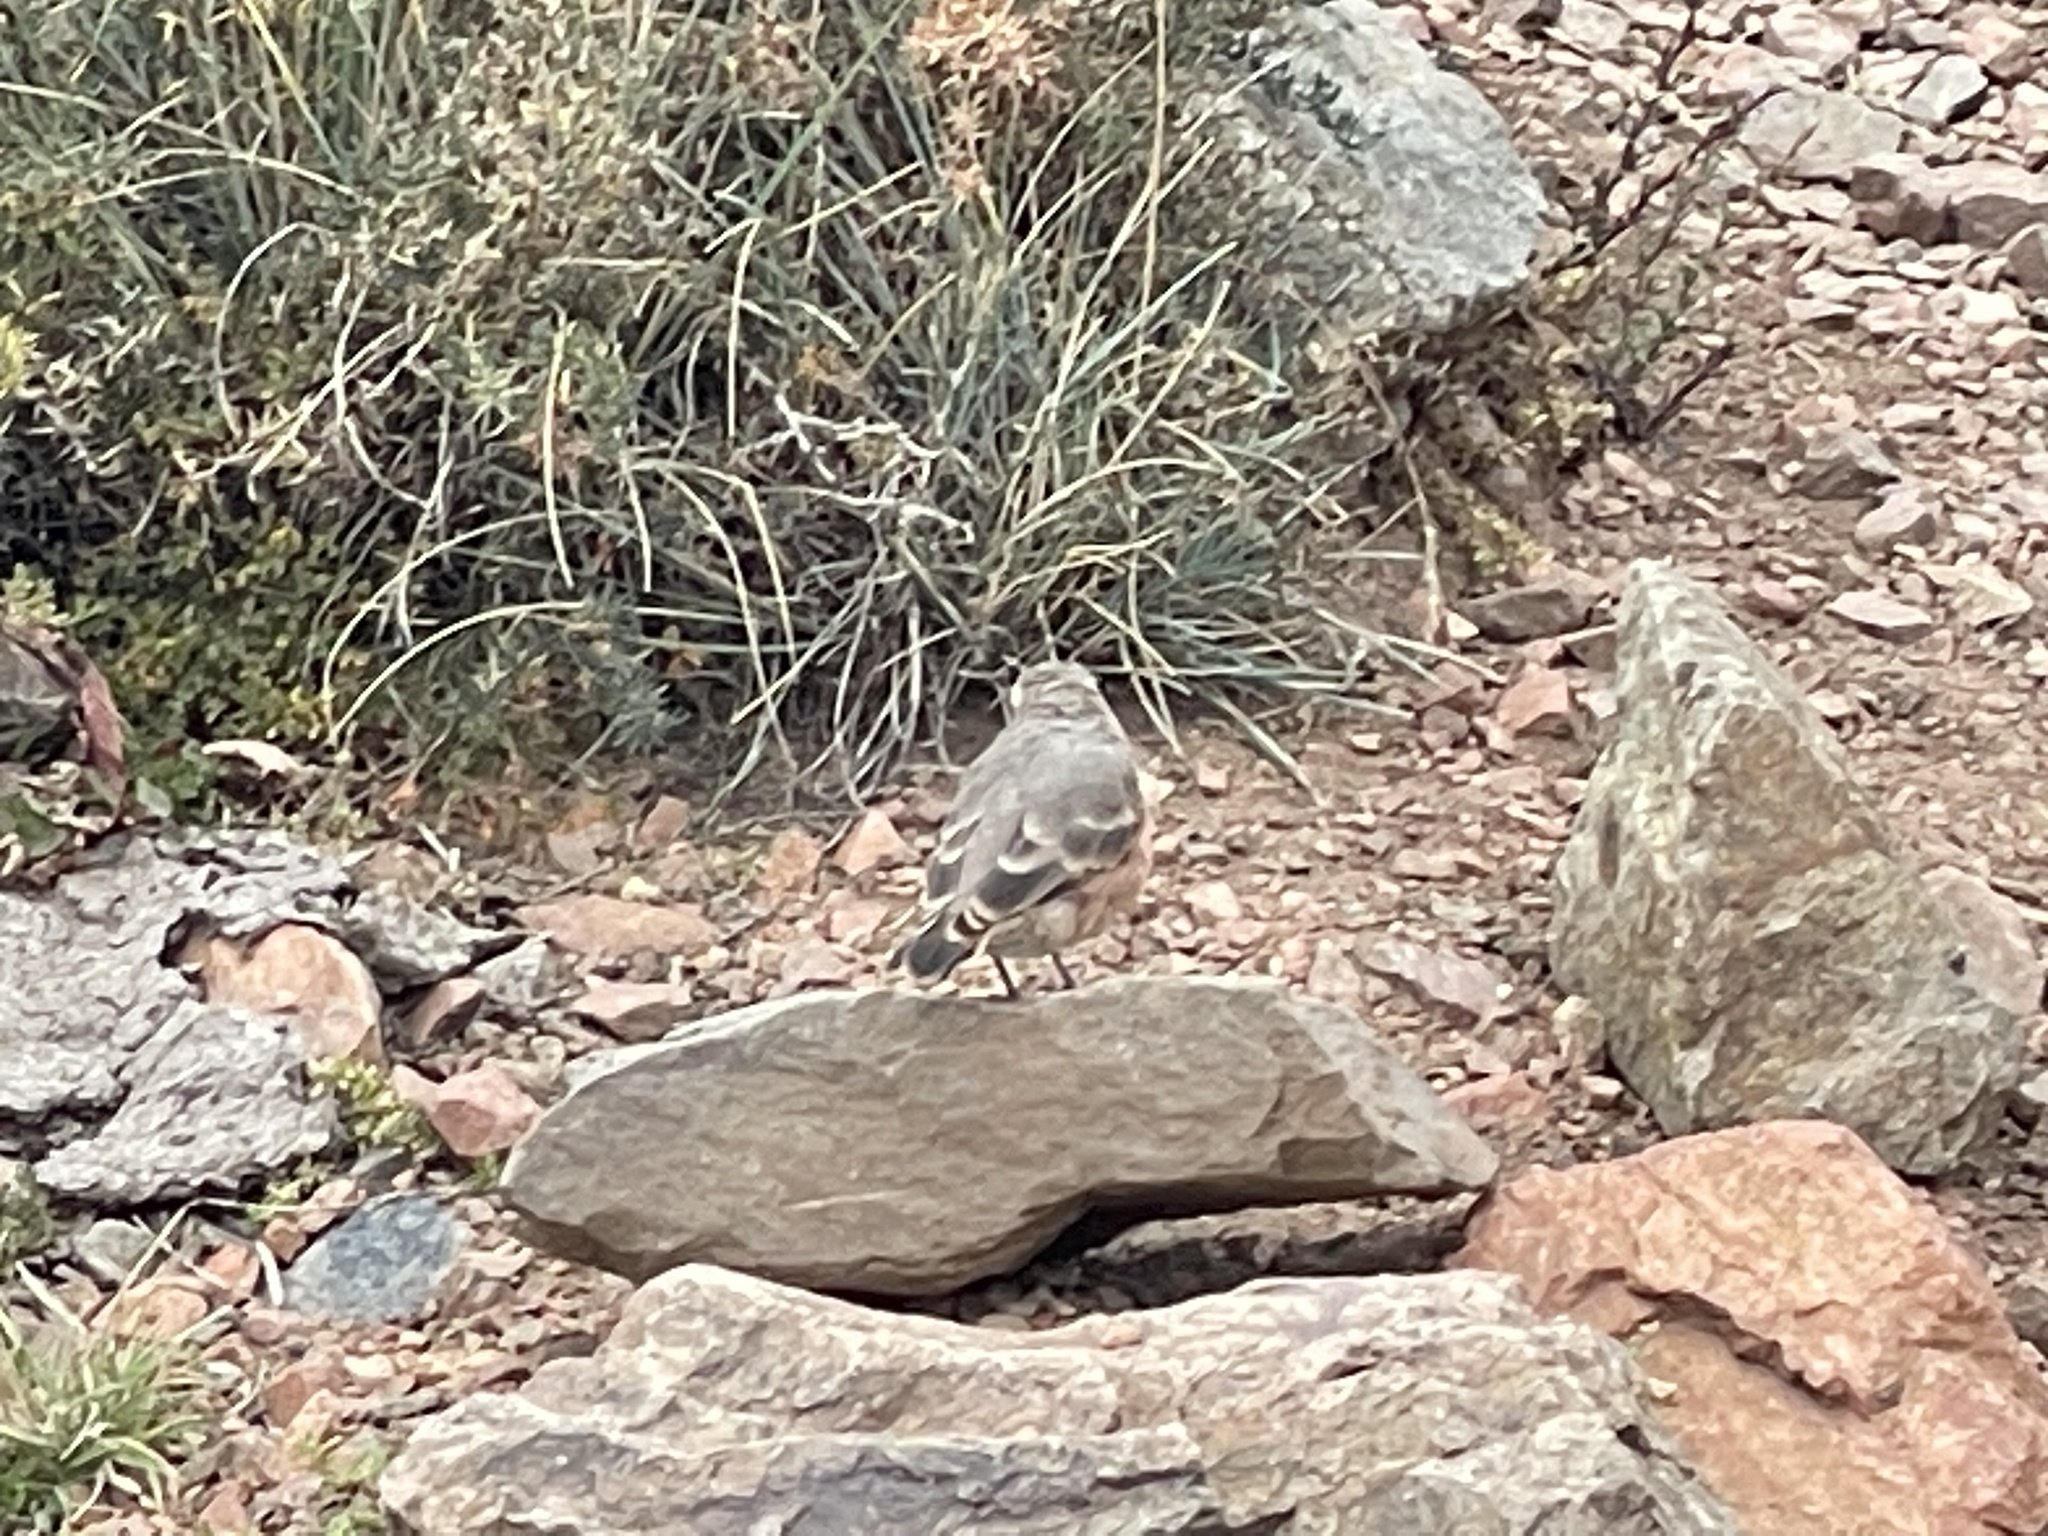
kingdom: Animalia
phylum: Chordata
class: Aves
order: Passeriformes
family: Furnariidae
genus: Geositta
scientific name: Geositta rufipennis
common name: Rufous-banded miner
